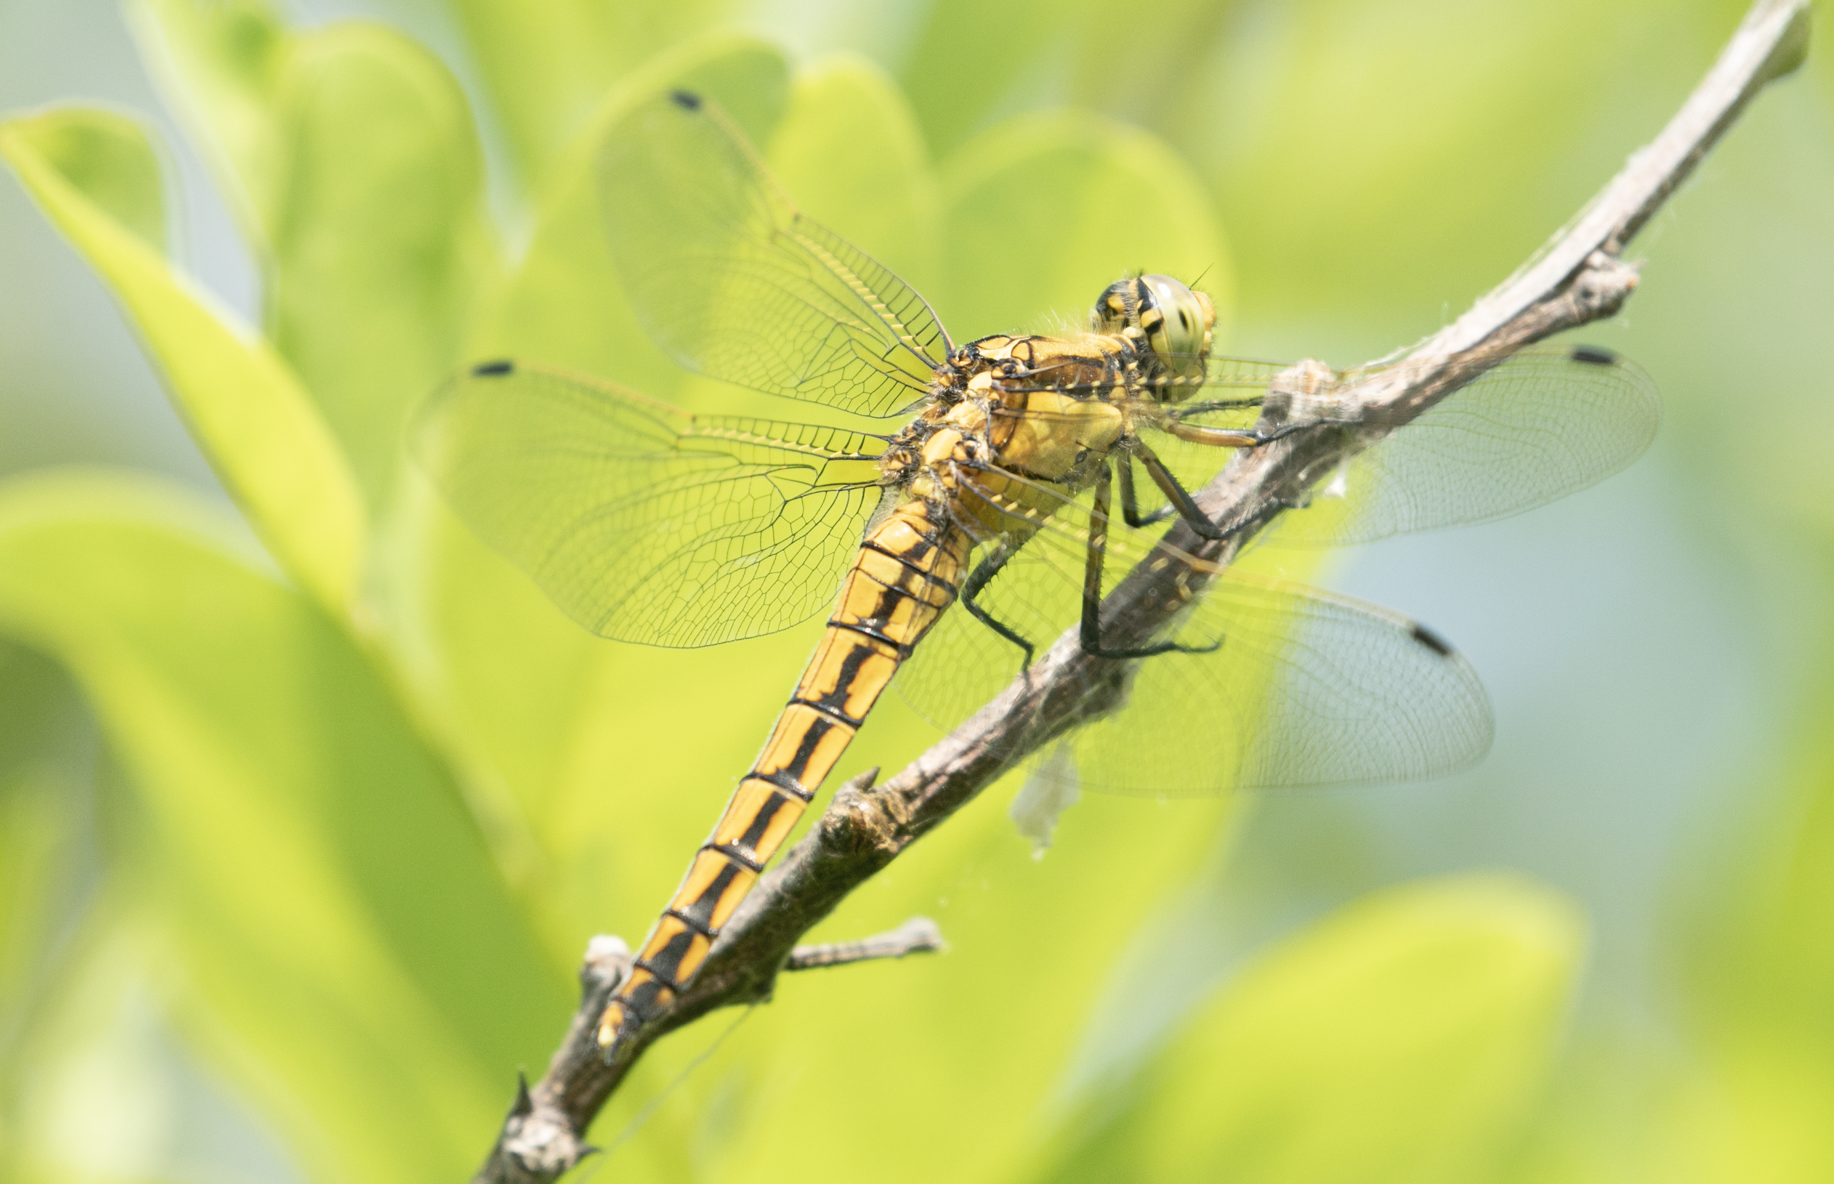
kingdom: Animalia
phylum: Arthropoda
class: Insecta
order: Odonata
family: Libellulidae
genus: Orthetrum
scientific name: Orthetrum cancellatum
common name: Black-tailed skimmer
